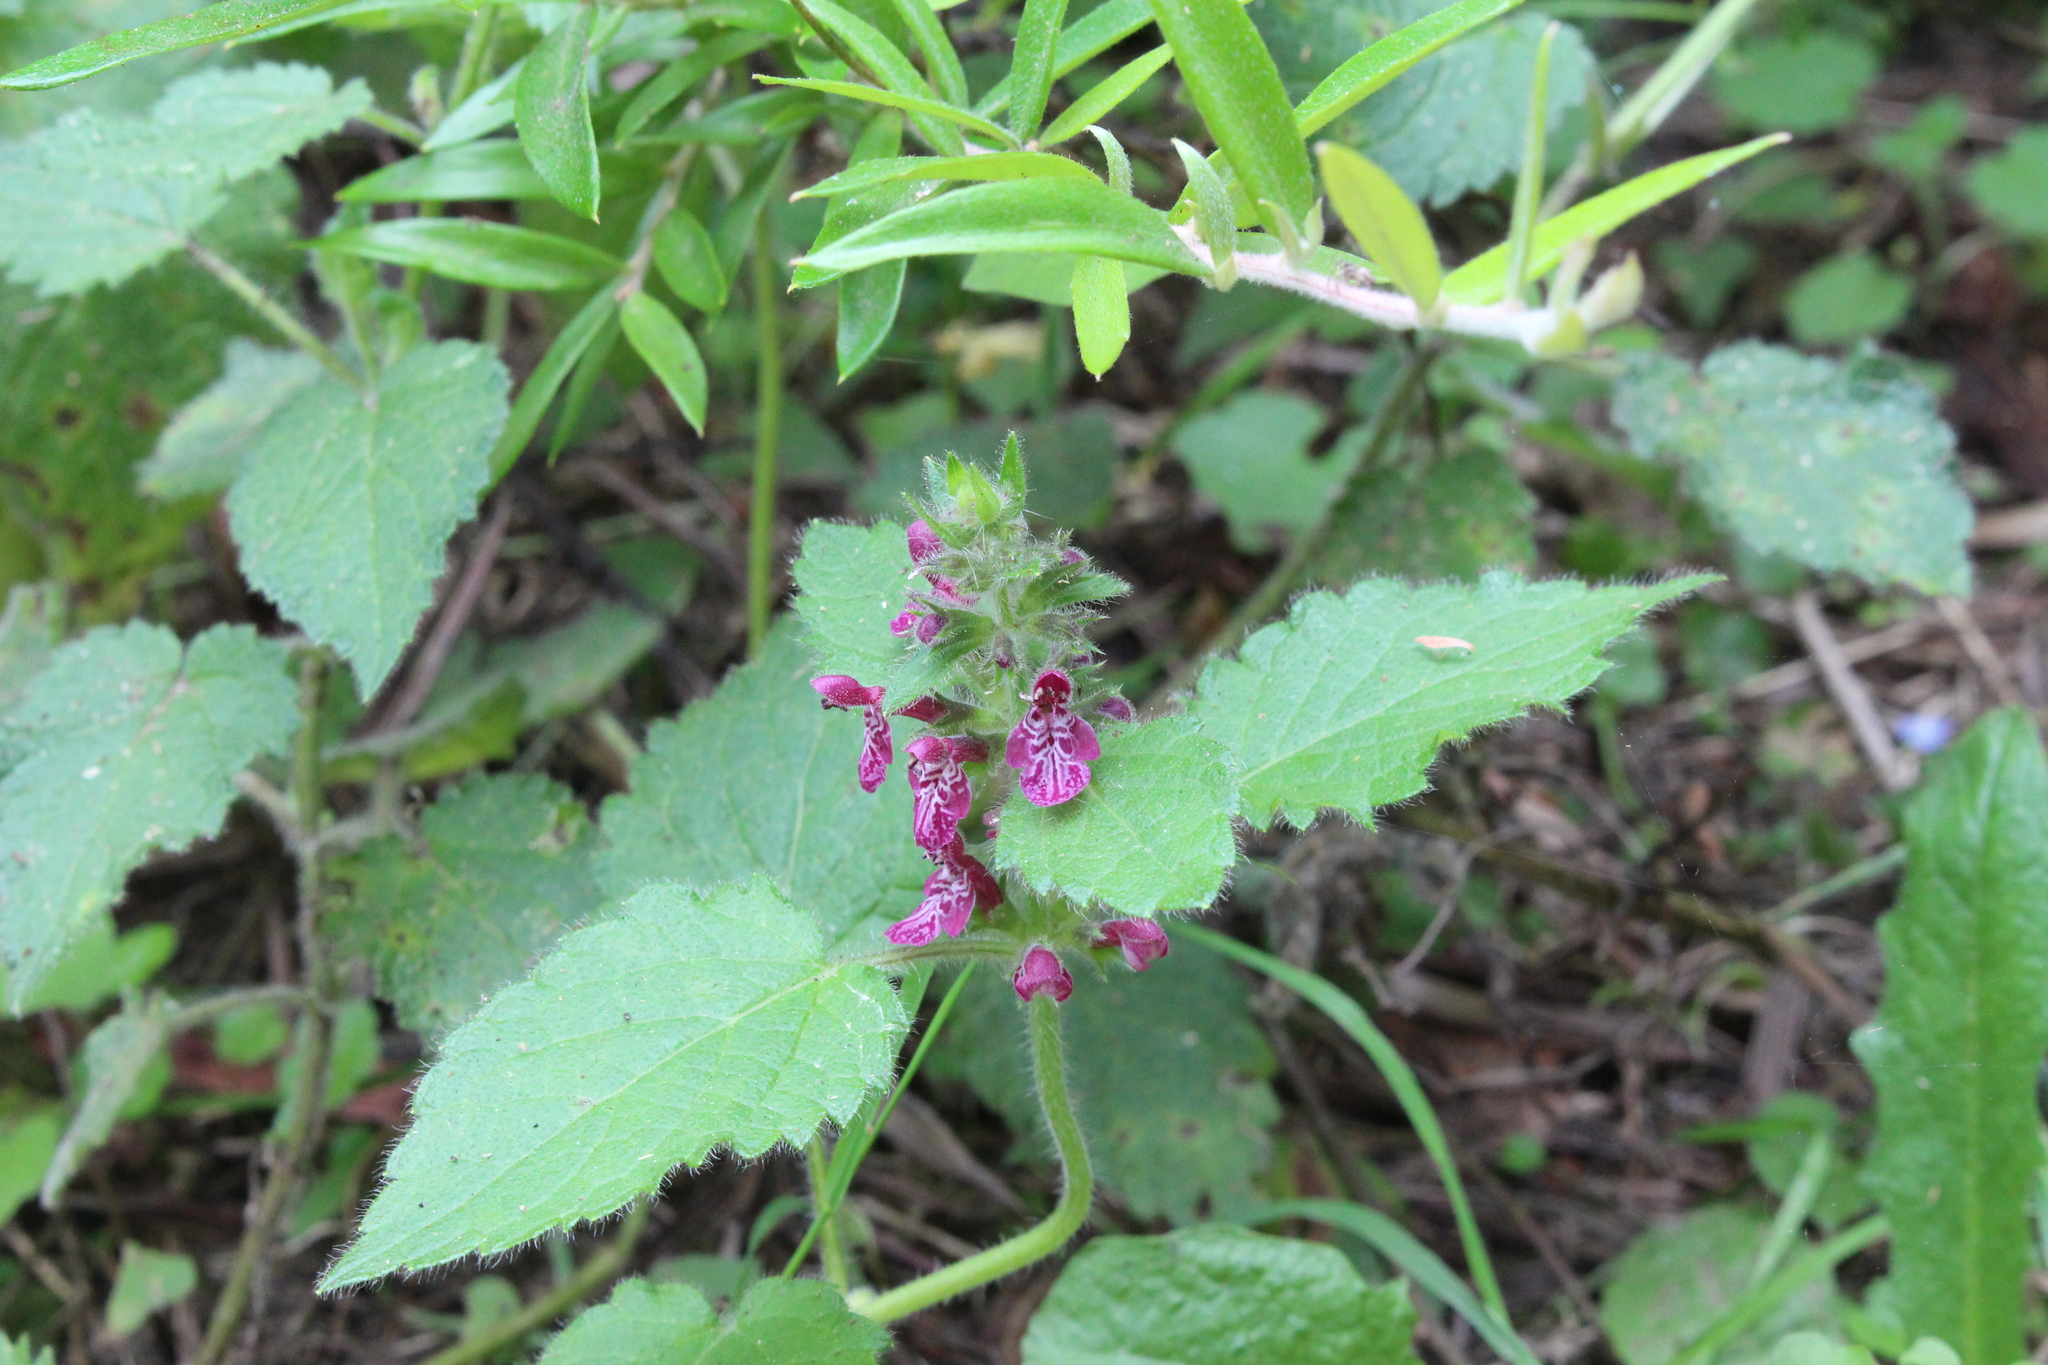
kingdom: Plantae
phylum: Tracheophyta
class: Magnoliopsida
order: Lamiales
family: Lamiaceae
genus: Stachys
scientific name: Stachys sylvatica
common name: Hedge woundwort
